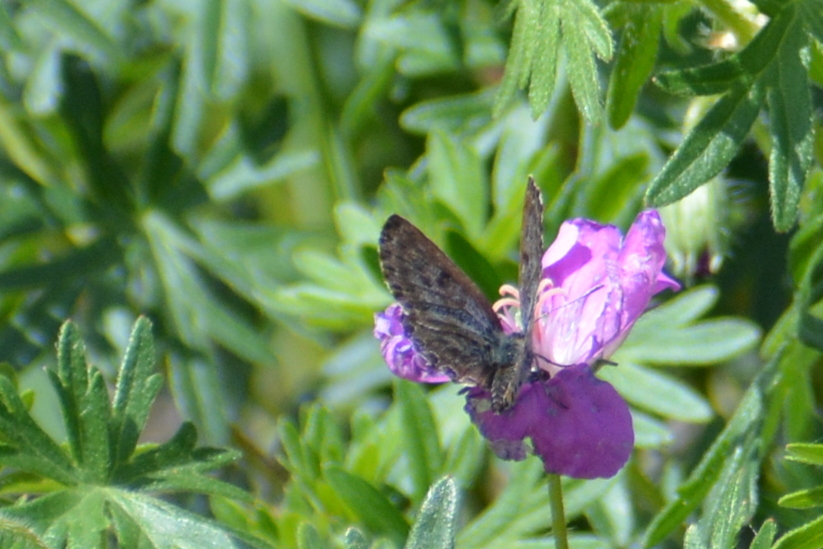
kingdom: Animalia
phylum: Arthropoda
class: Insecta
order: Lepidoptera
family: Lycaenidae
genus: Scolitantides
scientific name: Scolitantides orion
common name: Chequered blue
